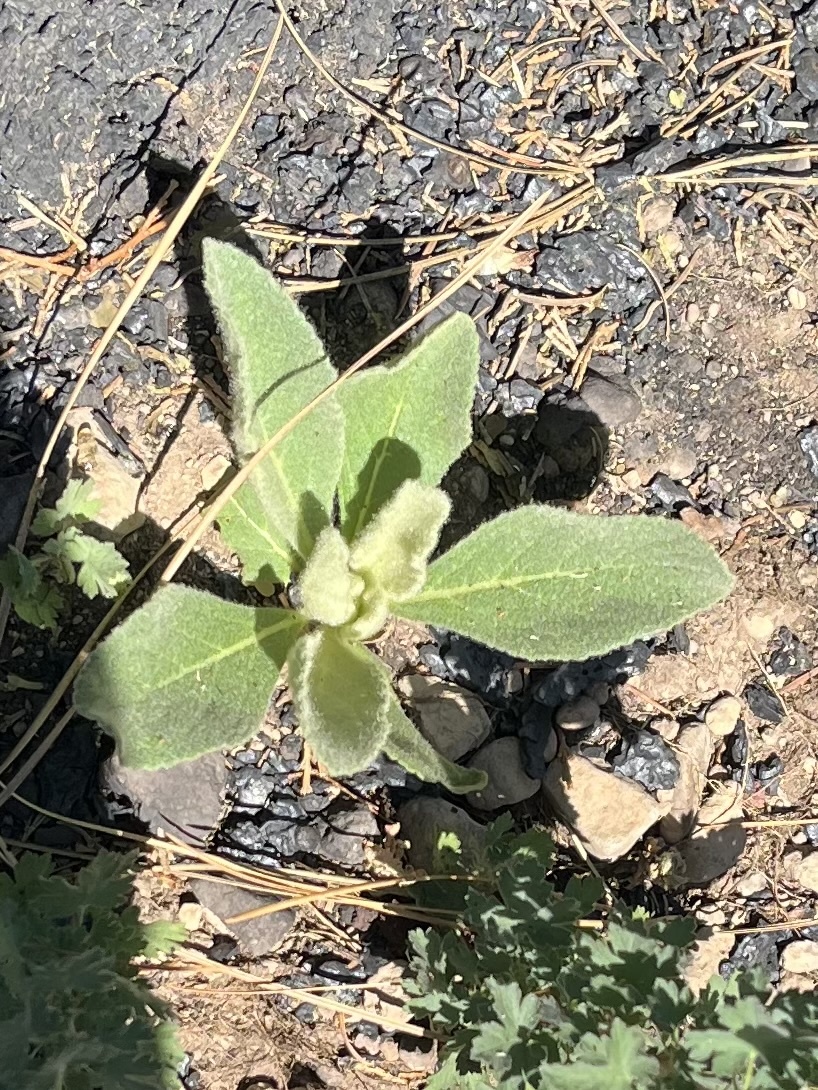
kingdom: Plantae
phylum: Tracheophyta
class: Magnoliopsida
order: Lamiales
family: Scrophulariaceae
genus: Verbascum
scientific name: Verbascum thapsus
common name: Common mullein
